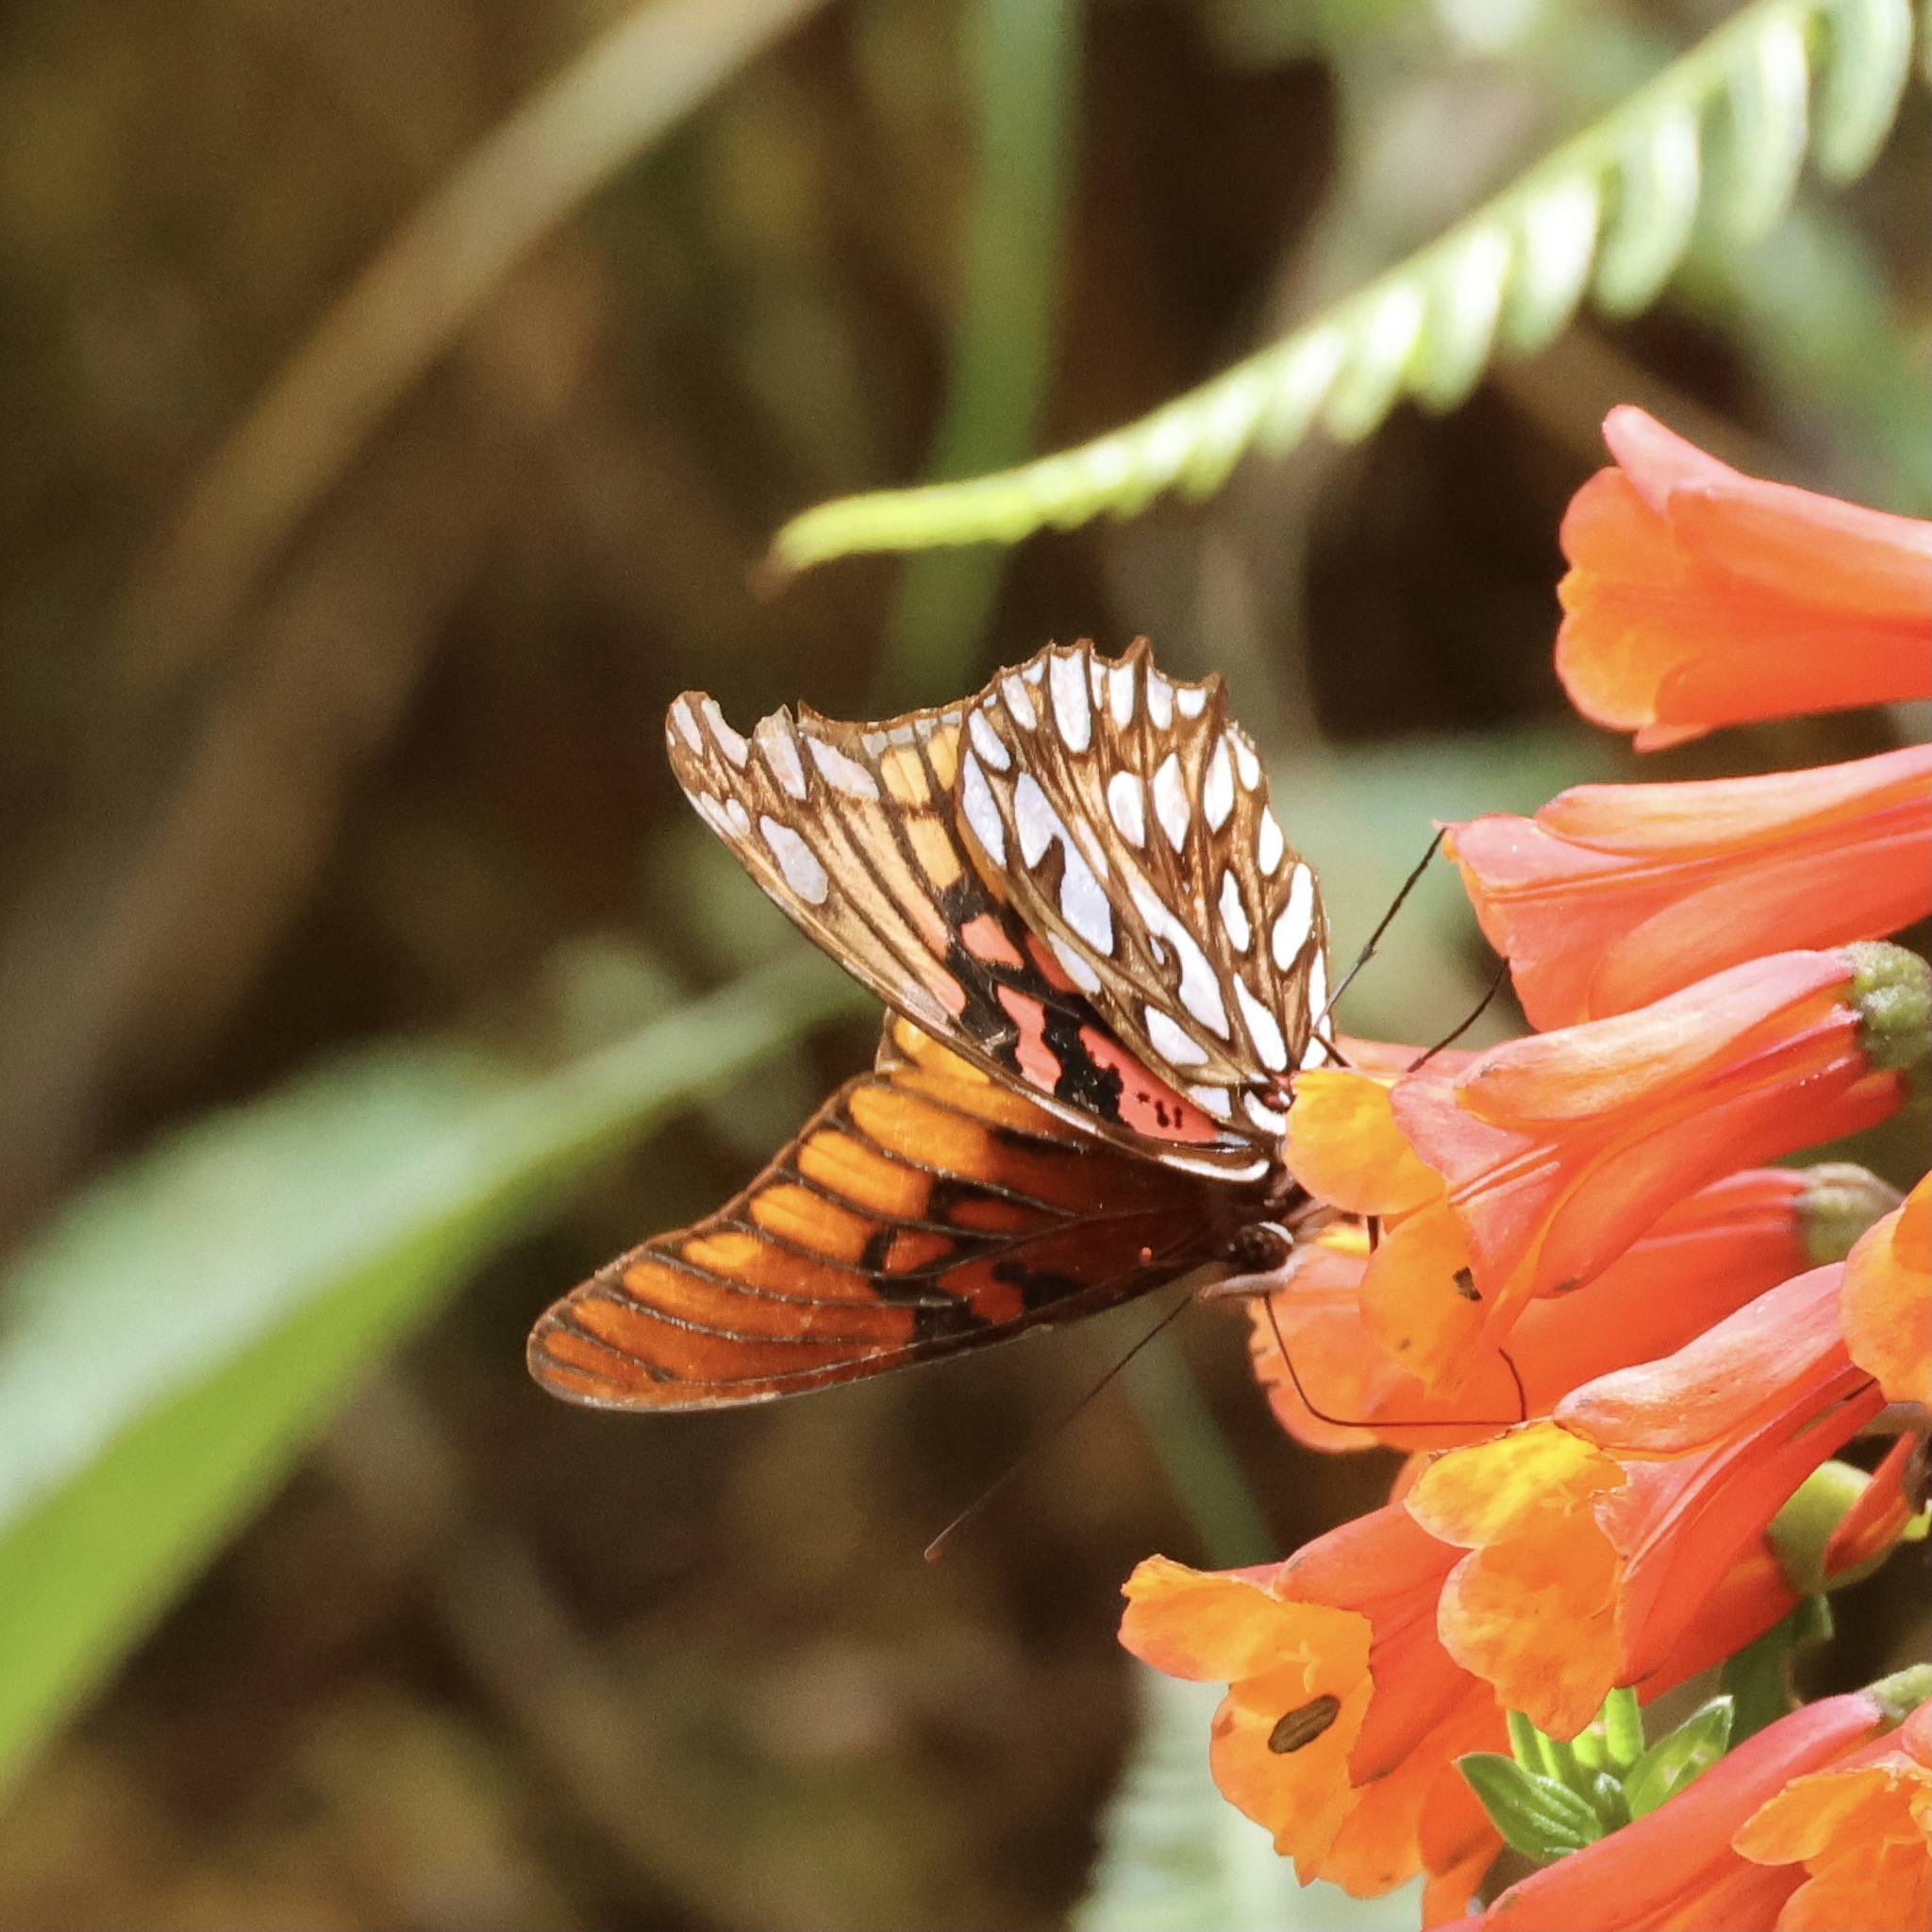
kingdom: Animalia
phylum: Arthropoda
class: Insecta
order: Lepidoptera
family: Nymphalidae
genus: Dione
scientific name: Dione moneta
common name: Mexican silverspot
